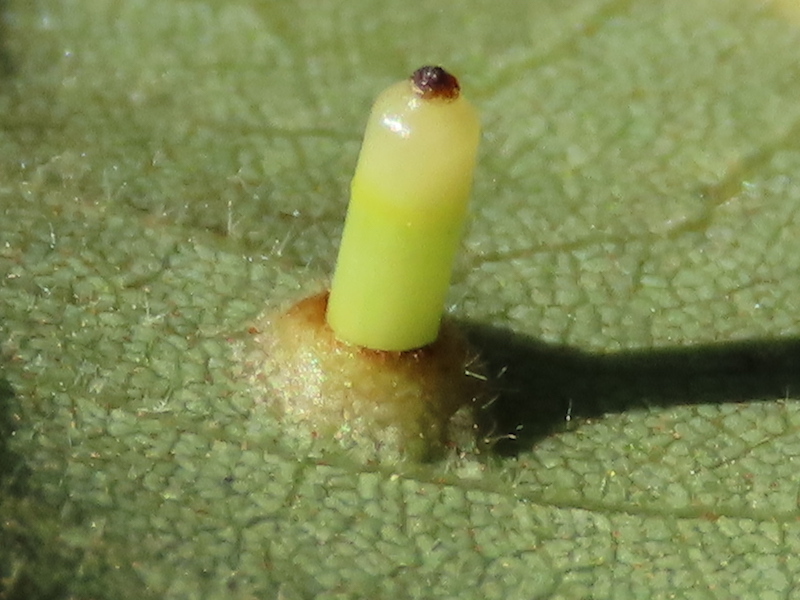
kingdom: Animalia
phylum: Arthropoda
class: Insecta
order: Diptera
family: Cecidomyiidae
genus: Caryomyia
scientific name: Caryomyia tubicola
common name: Hickory bullet gall midge
